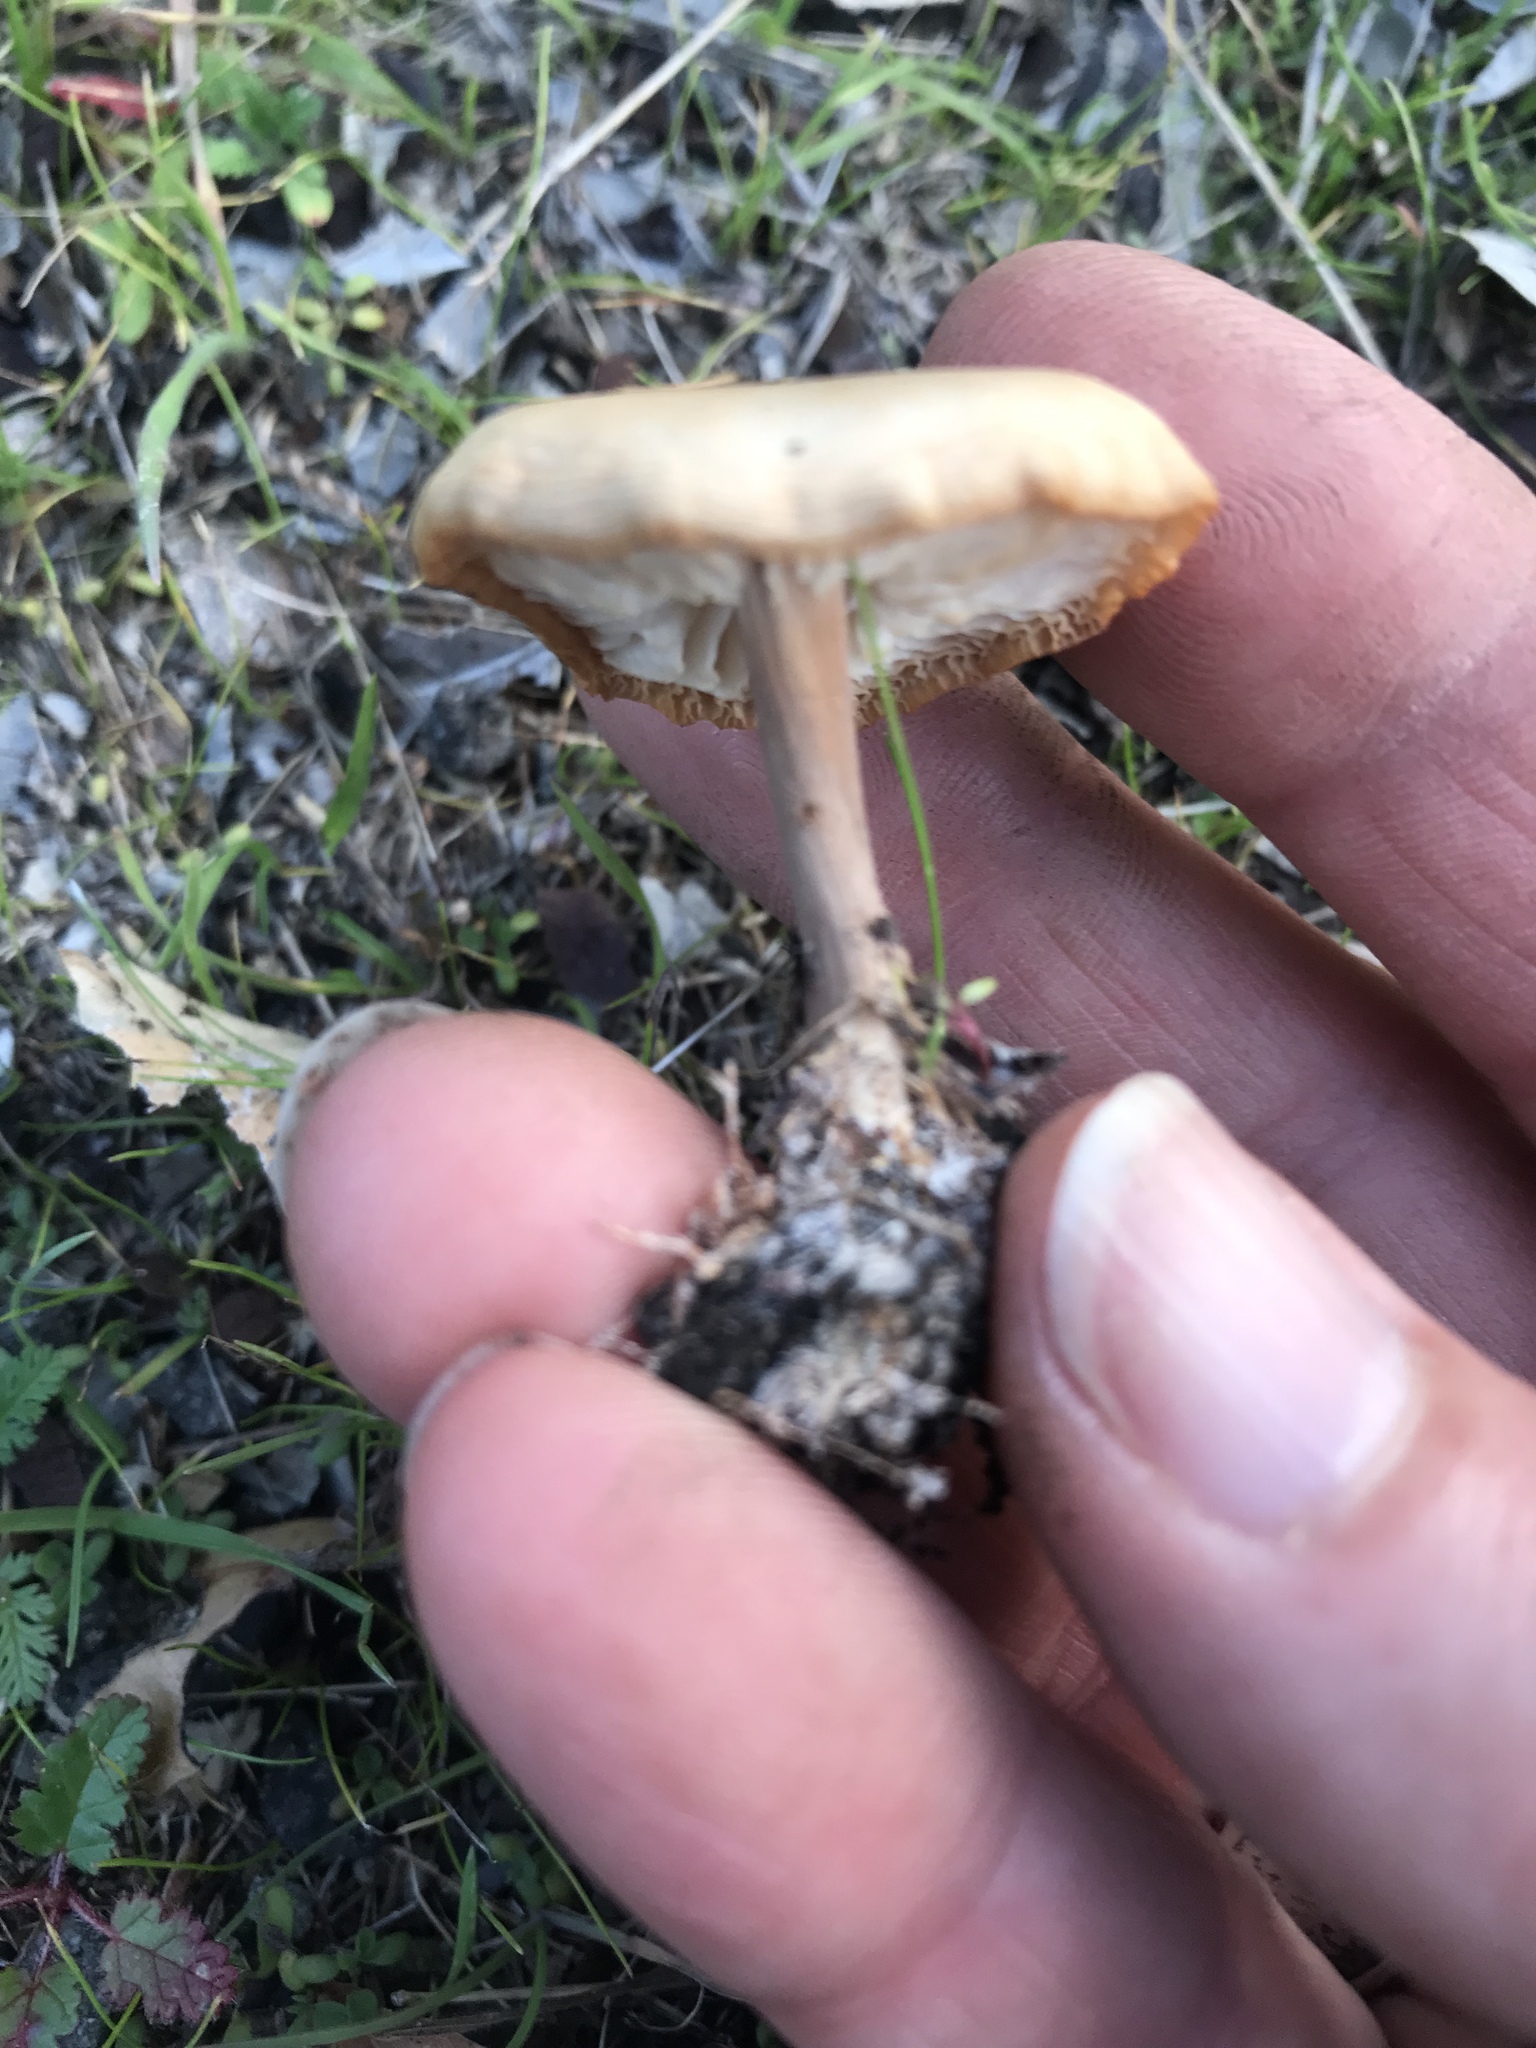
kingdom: Fungi
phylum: Basidiomycota
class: Agaricomycetes
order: Agaricales
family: Omphalotaceae
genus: Gymnopus
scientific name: Gymnopus dryophilus
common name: Penny top
